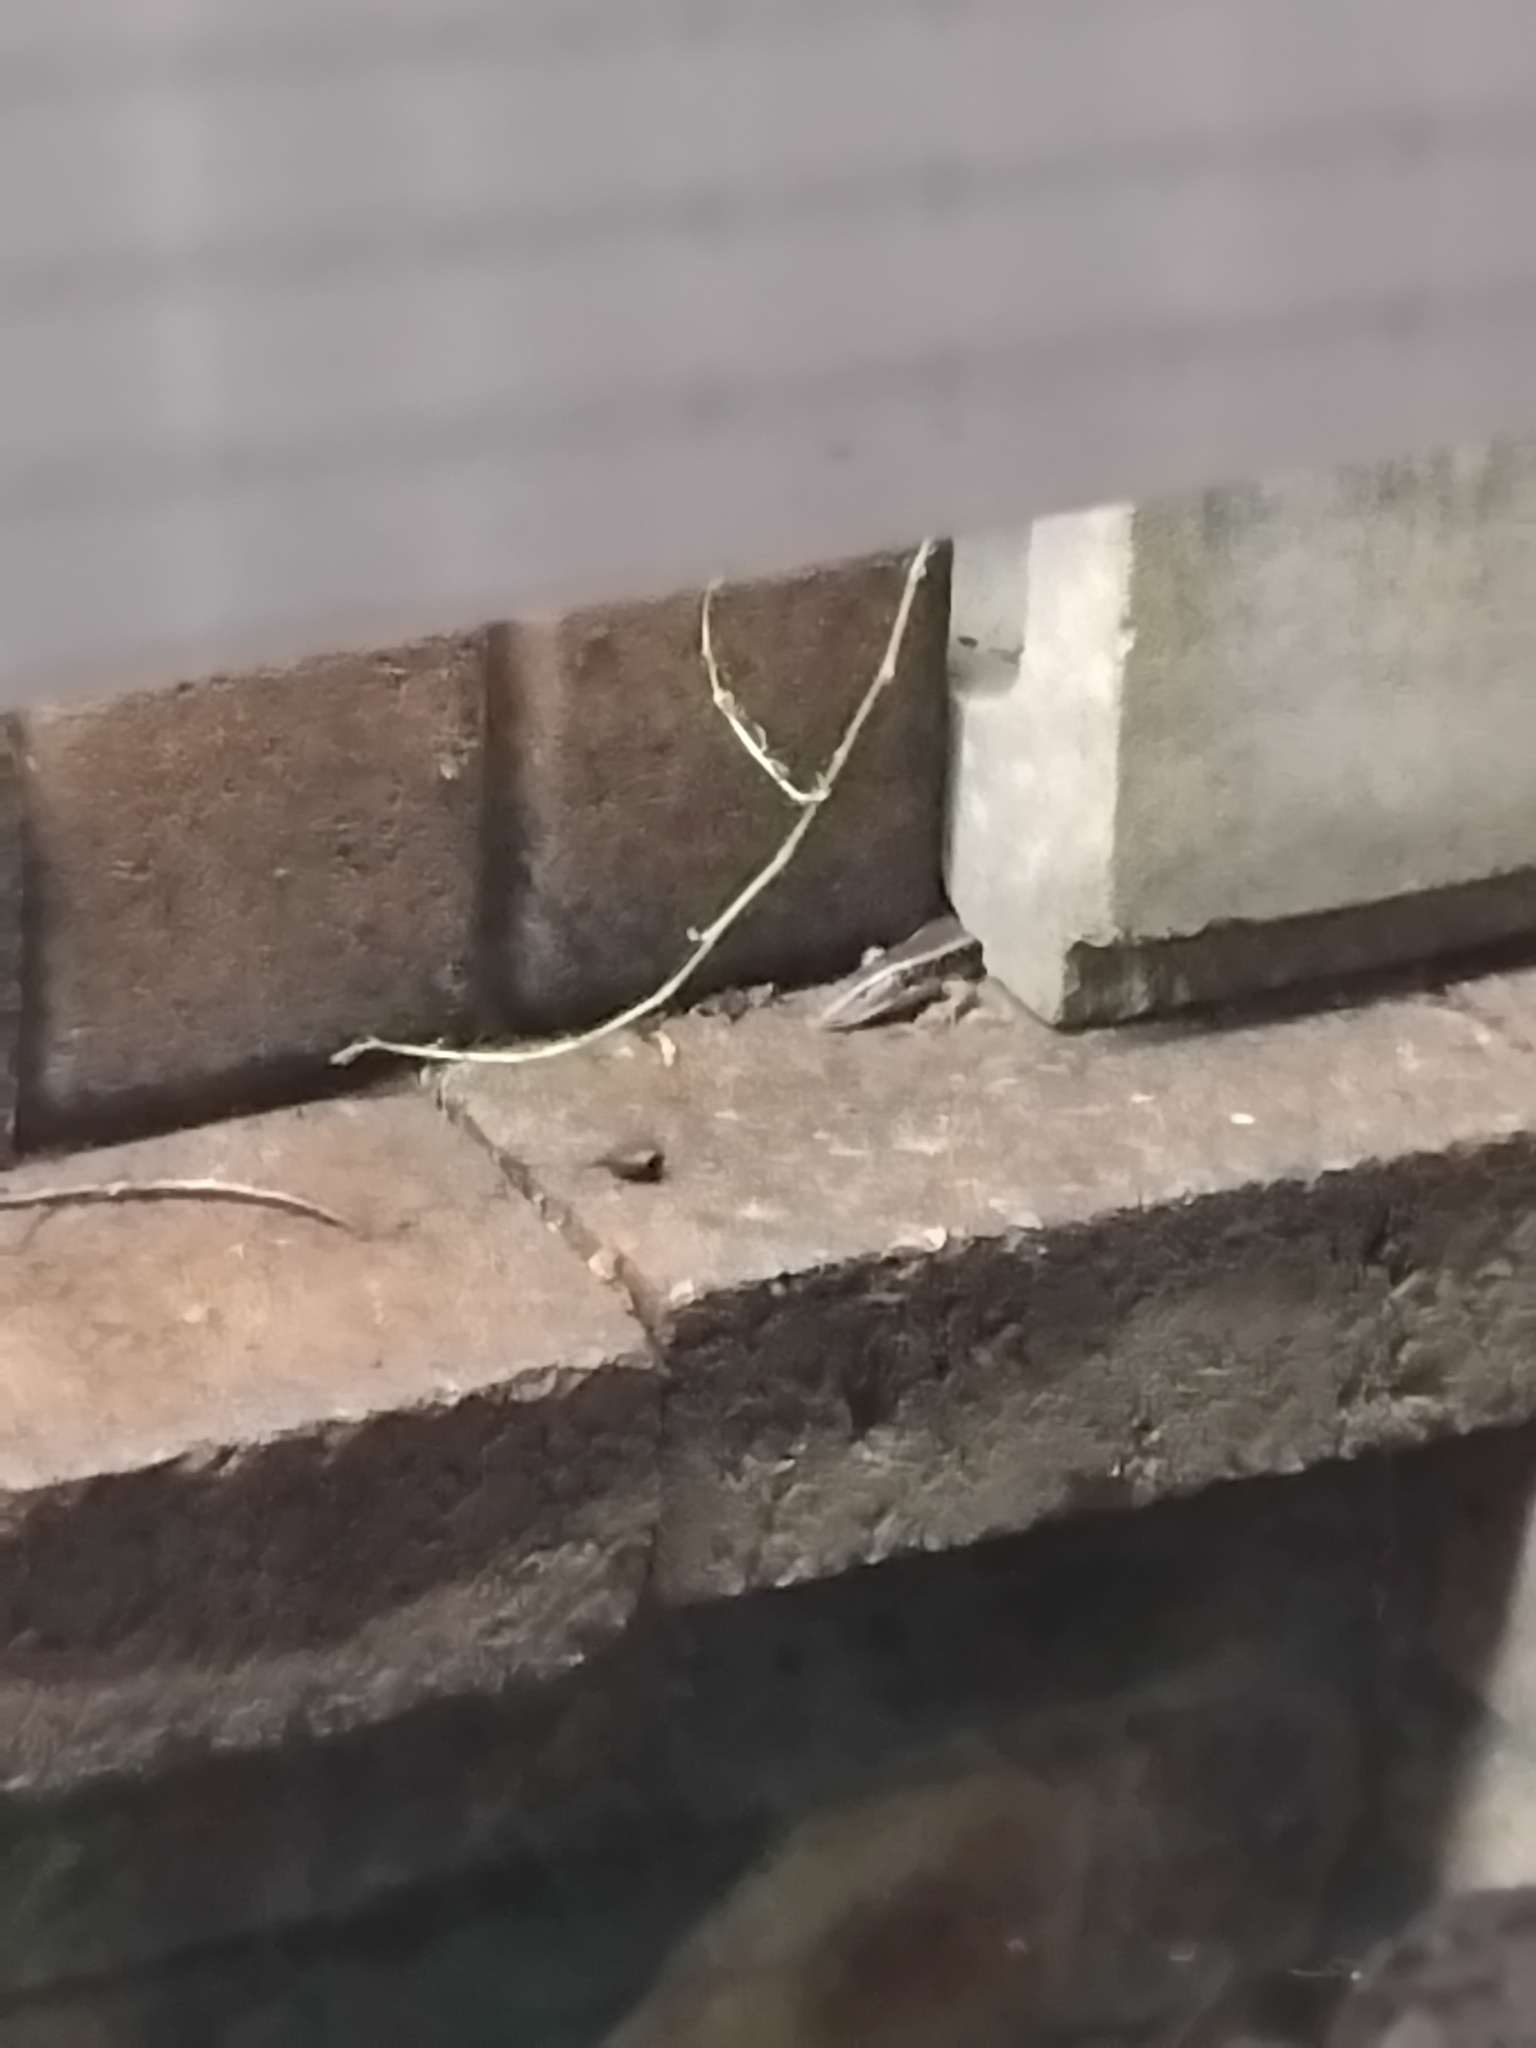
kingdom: Animalia
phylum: Chordata
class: Squamata
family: Scincidae
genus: Eulamprus
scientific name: Eulamprus quoyii
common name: Eastern water skink
